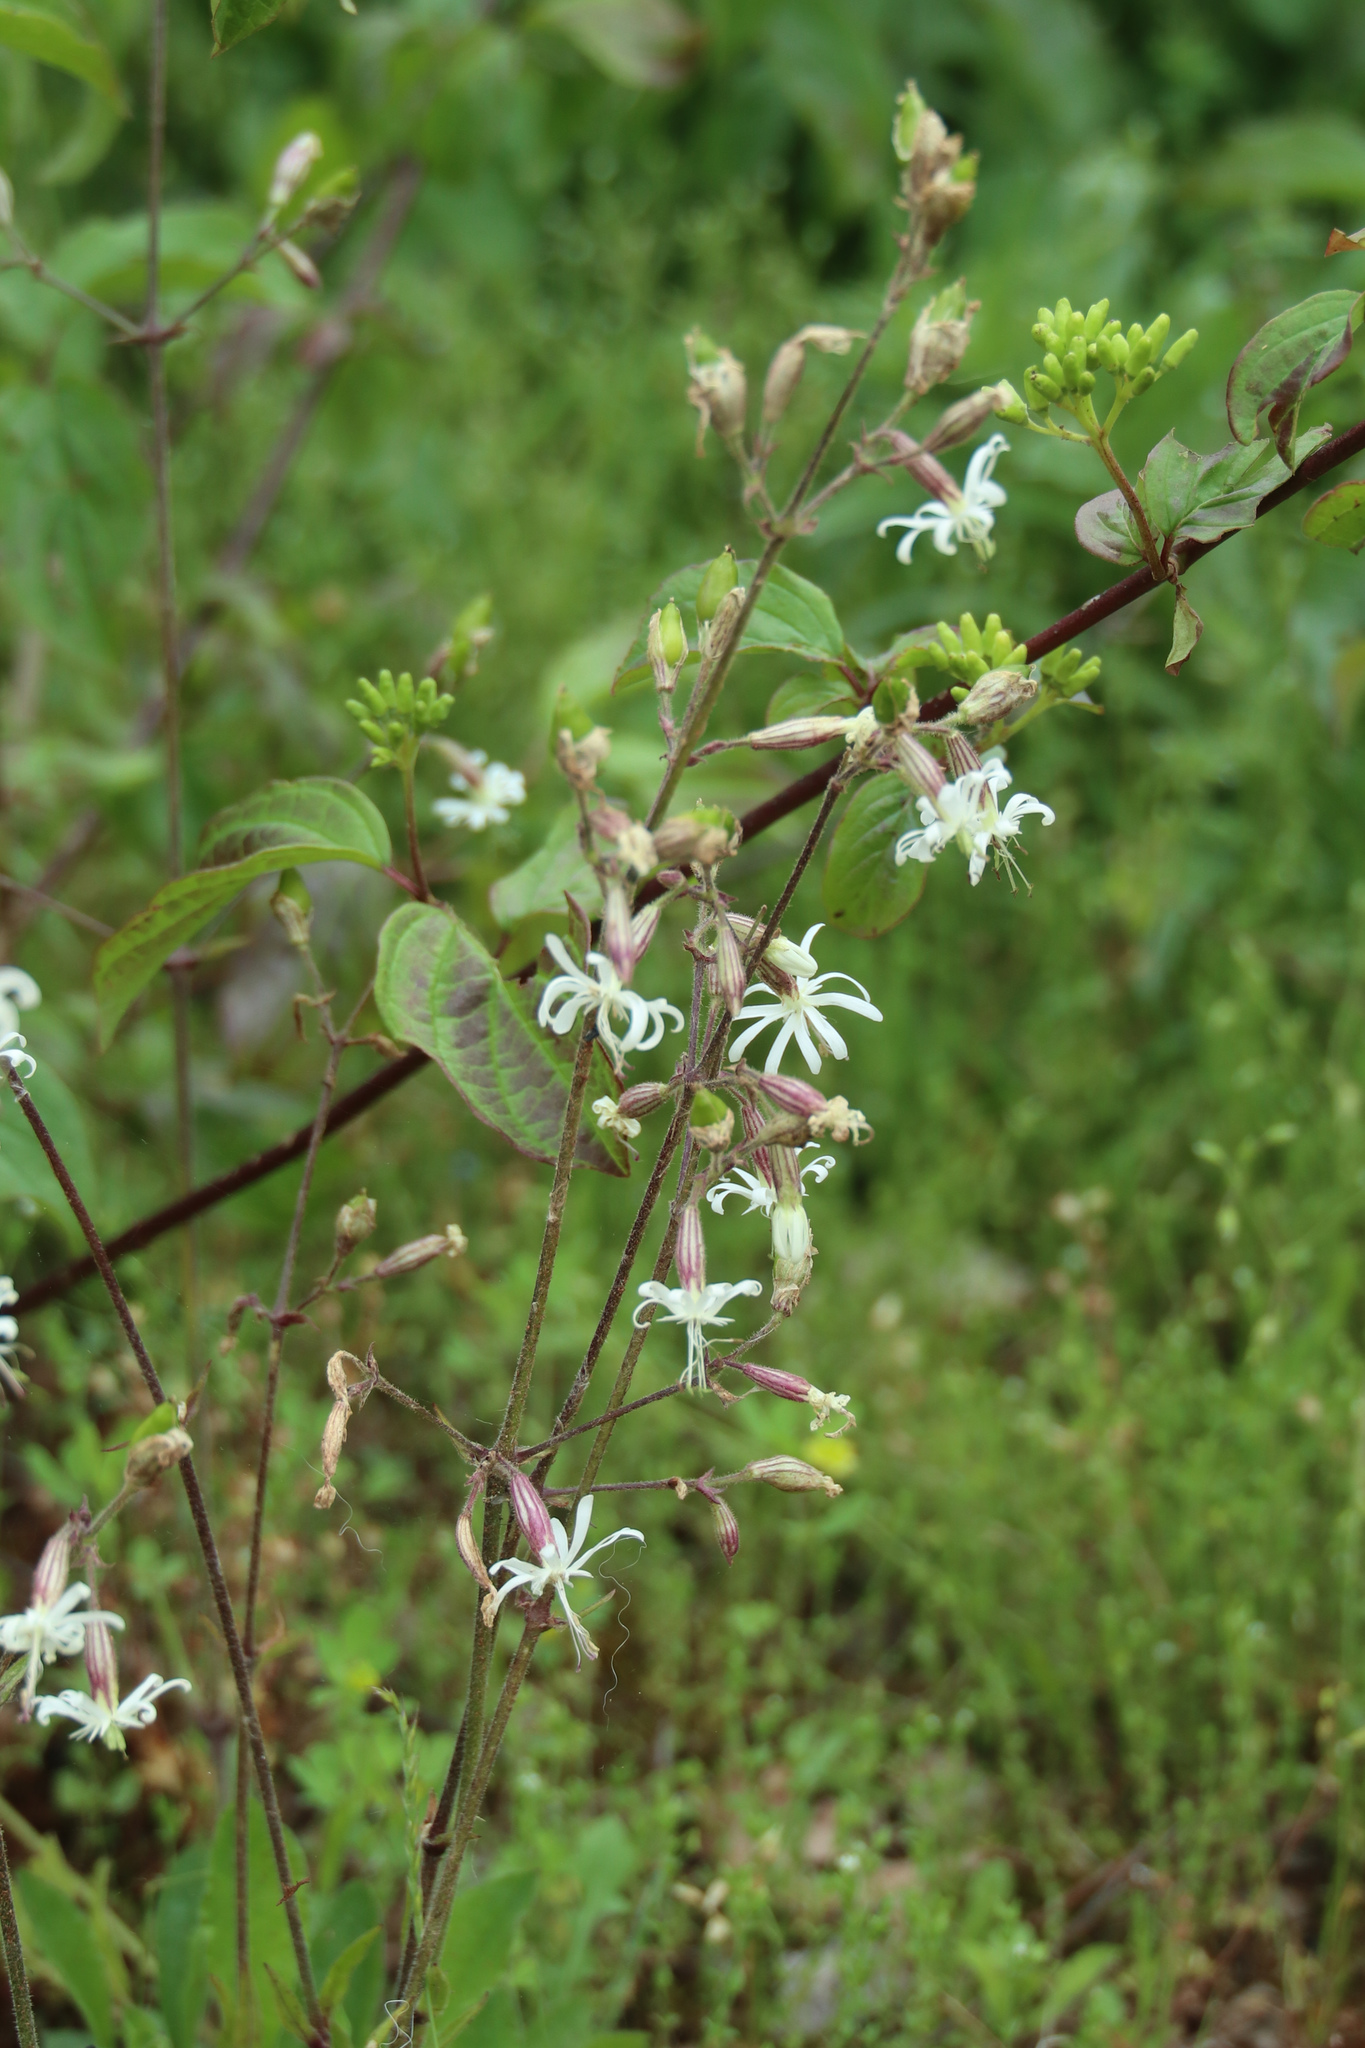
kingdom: Plantae
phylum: Tracheophyta
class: Magnoliopsida
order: Caryophyllales
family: Caryophyllaceae
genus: Silene
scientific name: Silene nutans
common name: Nottingham catchfly
